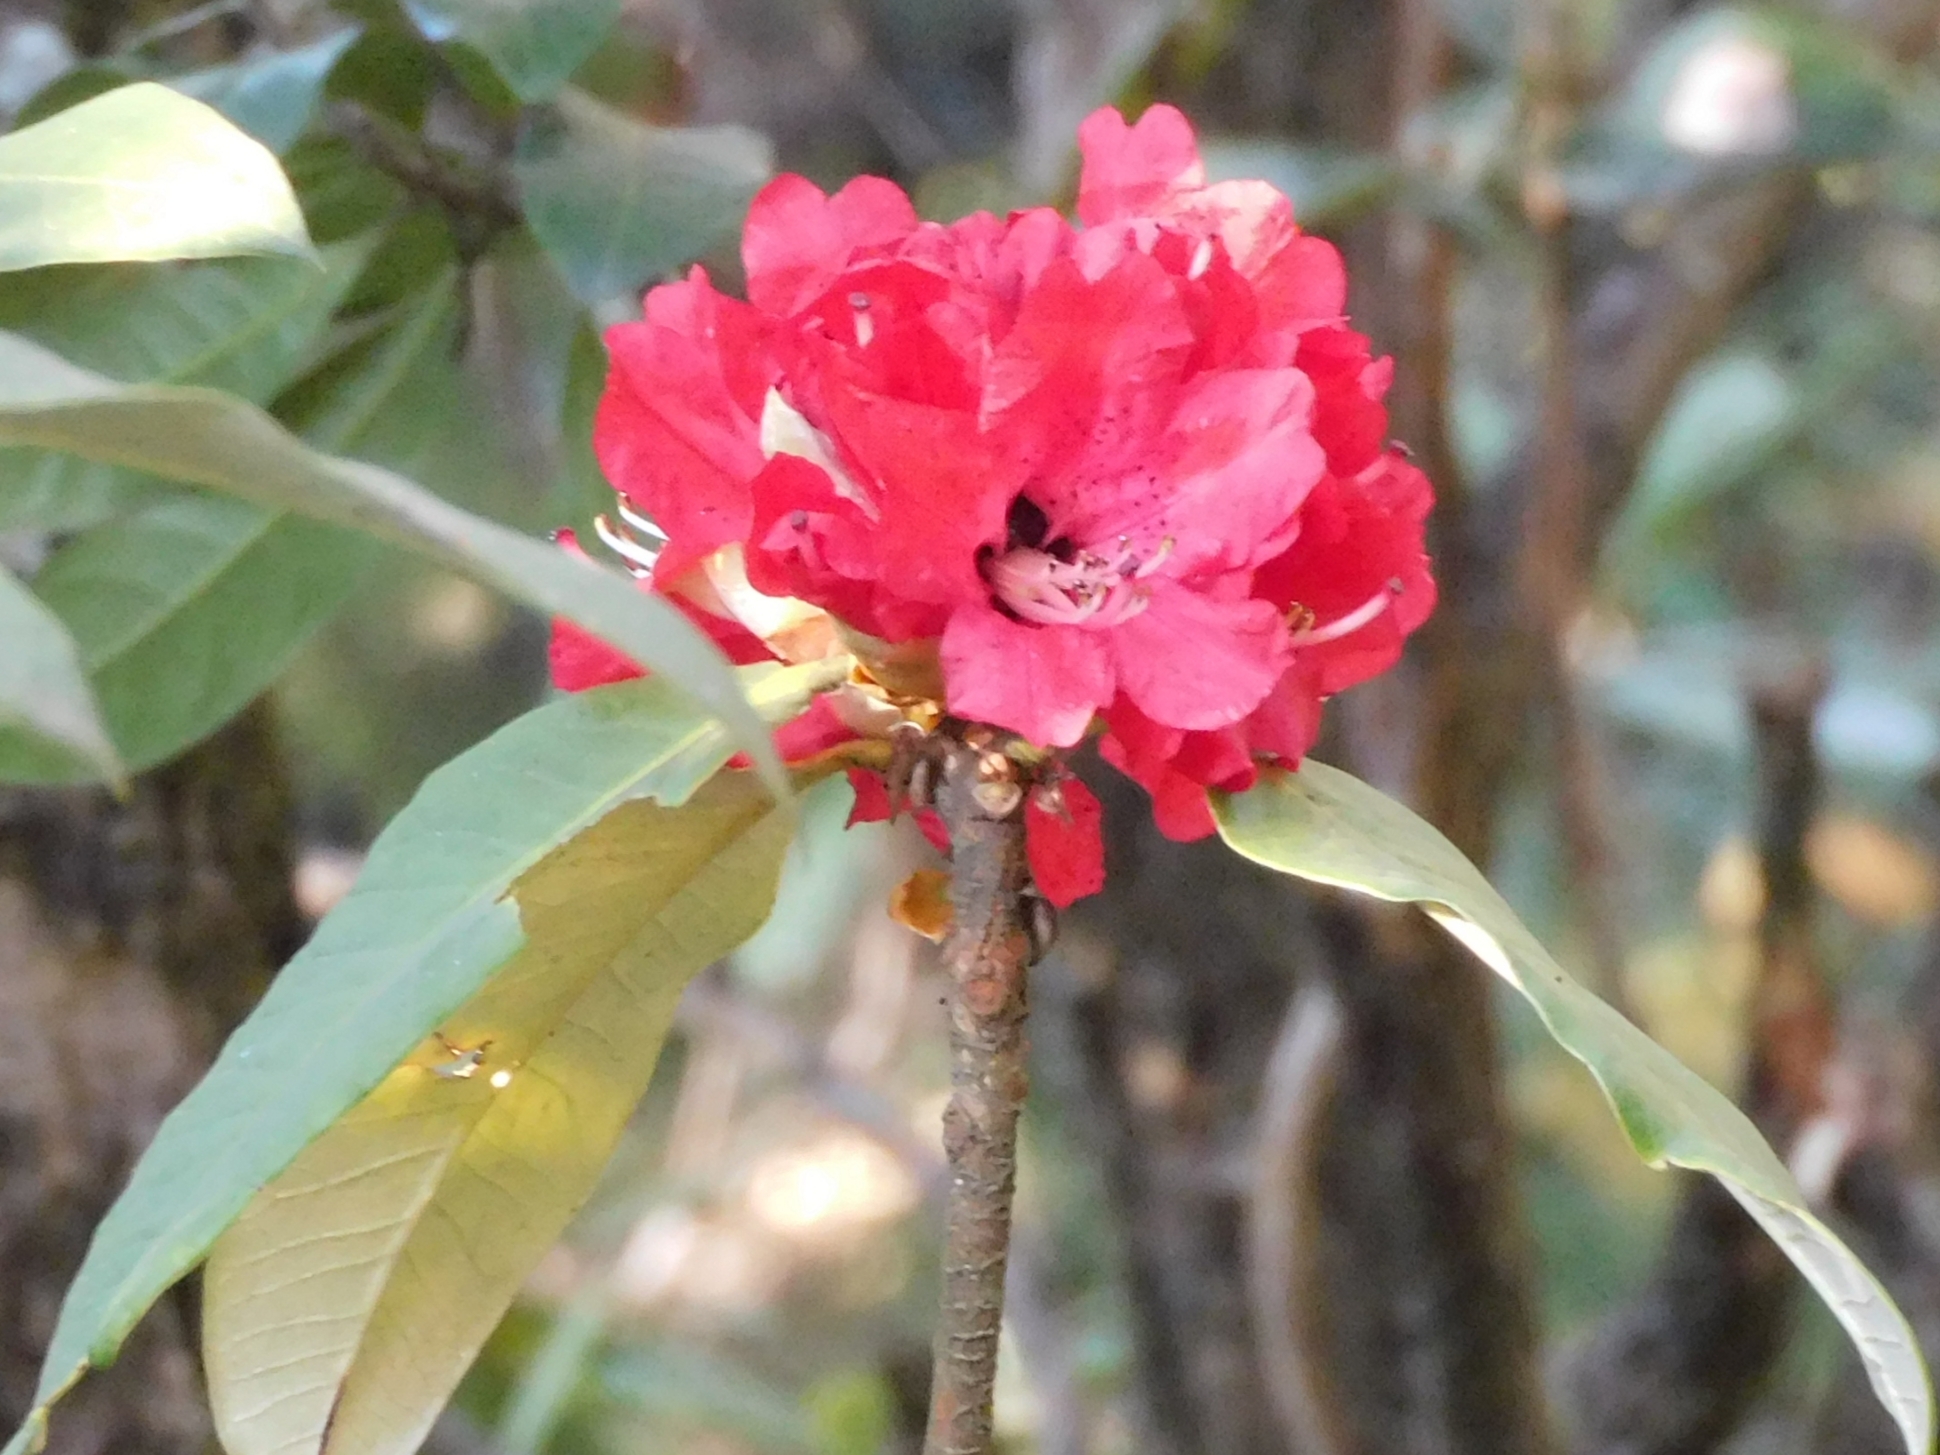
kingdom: Plantae
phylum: Tracheophyta
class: Magnoliopsida
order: Ericales
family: Ericaceae
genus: Rhododendron
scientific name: Rhododendron arboreum
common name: Tree rhododendron
